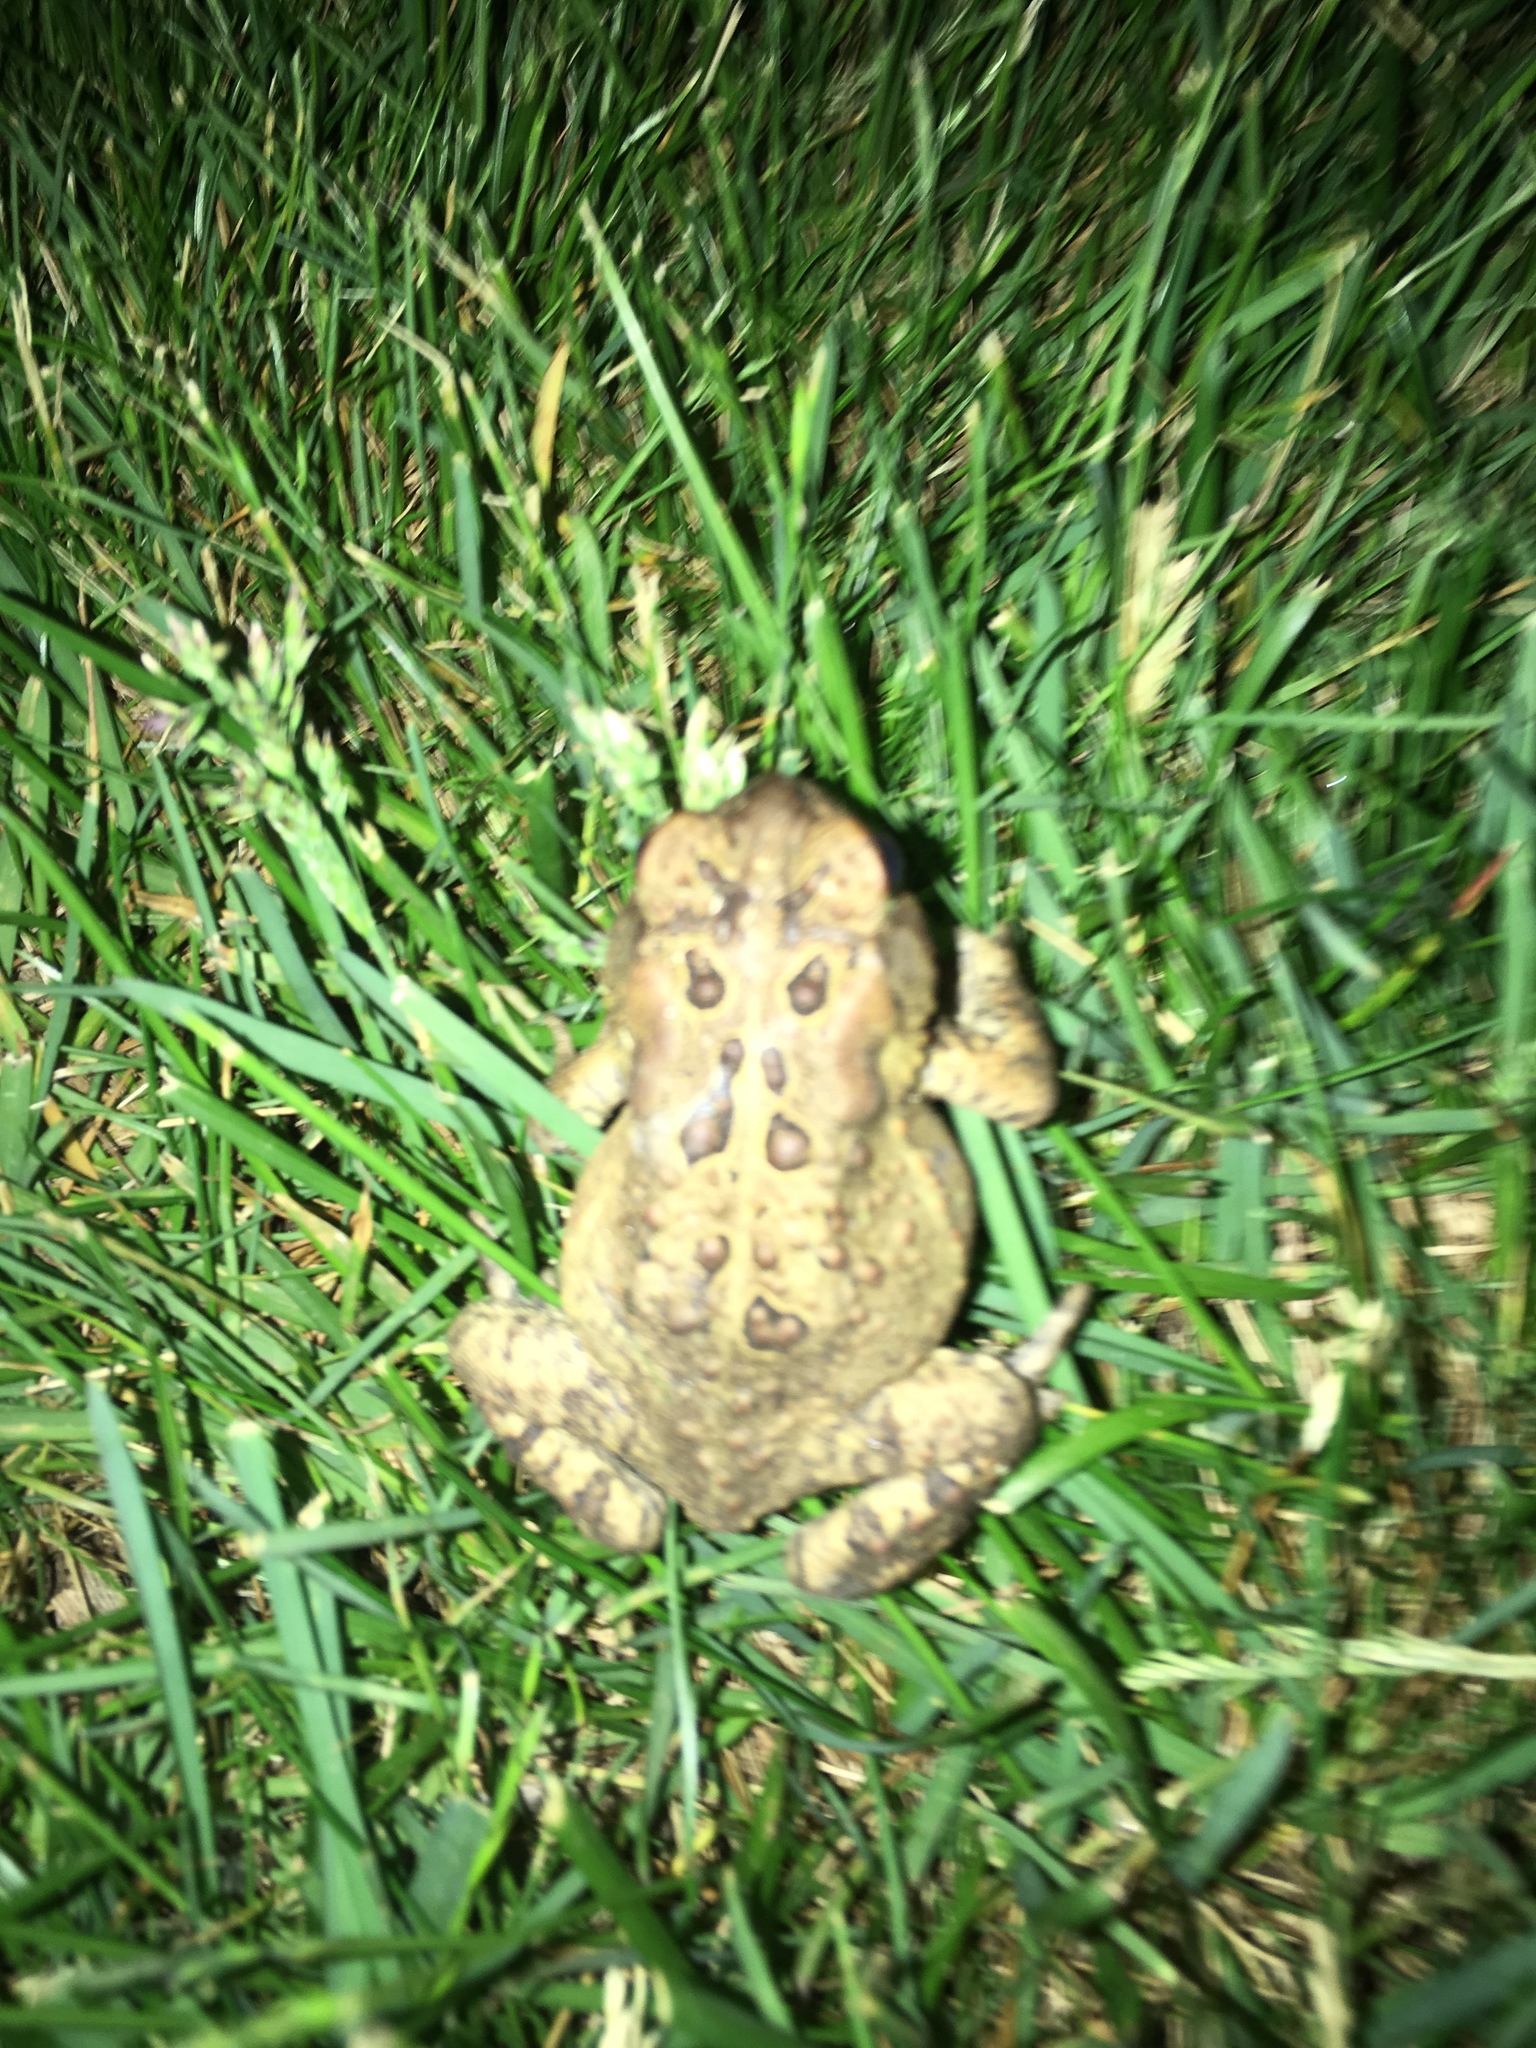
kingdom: Animalia
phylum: Chordata
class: Amphibia
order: Anura
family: Bufonidae
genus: Anaxyrus
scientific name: Anaxyrus americanus
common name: American toad
